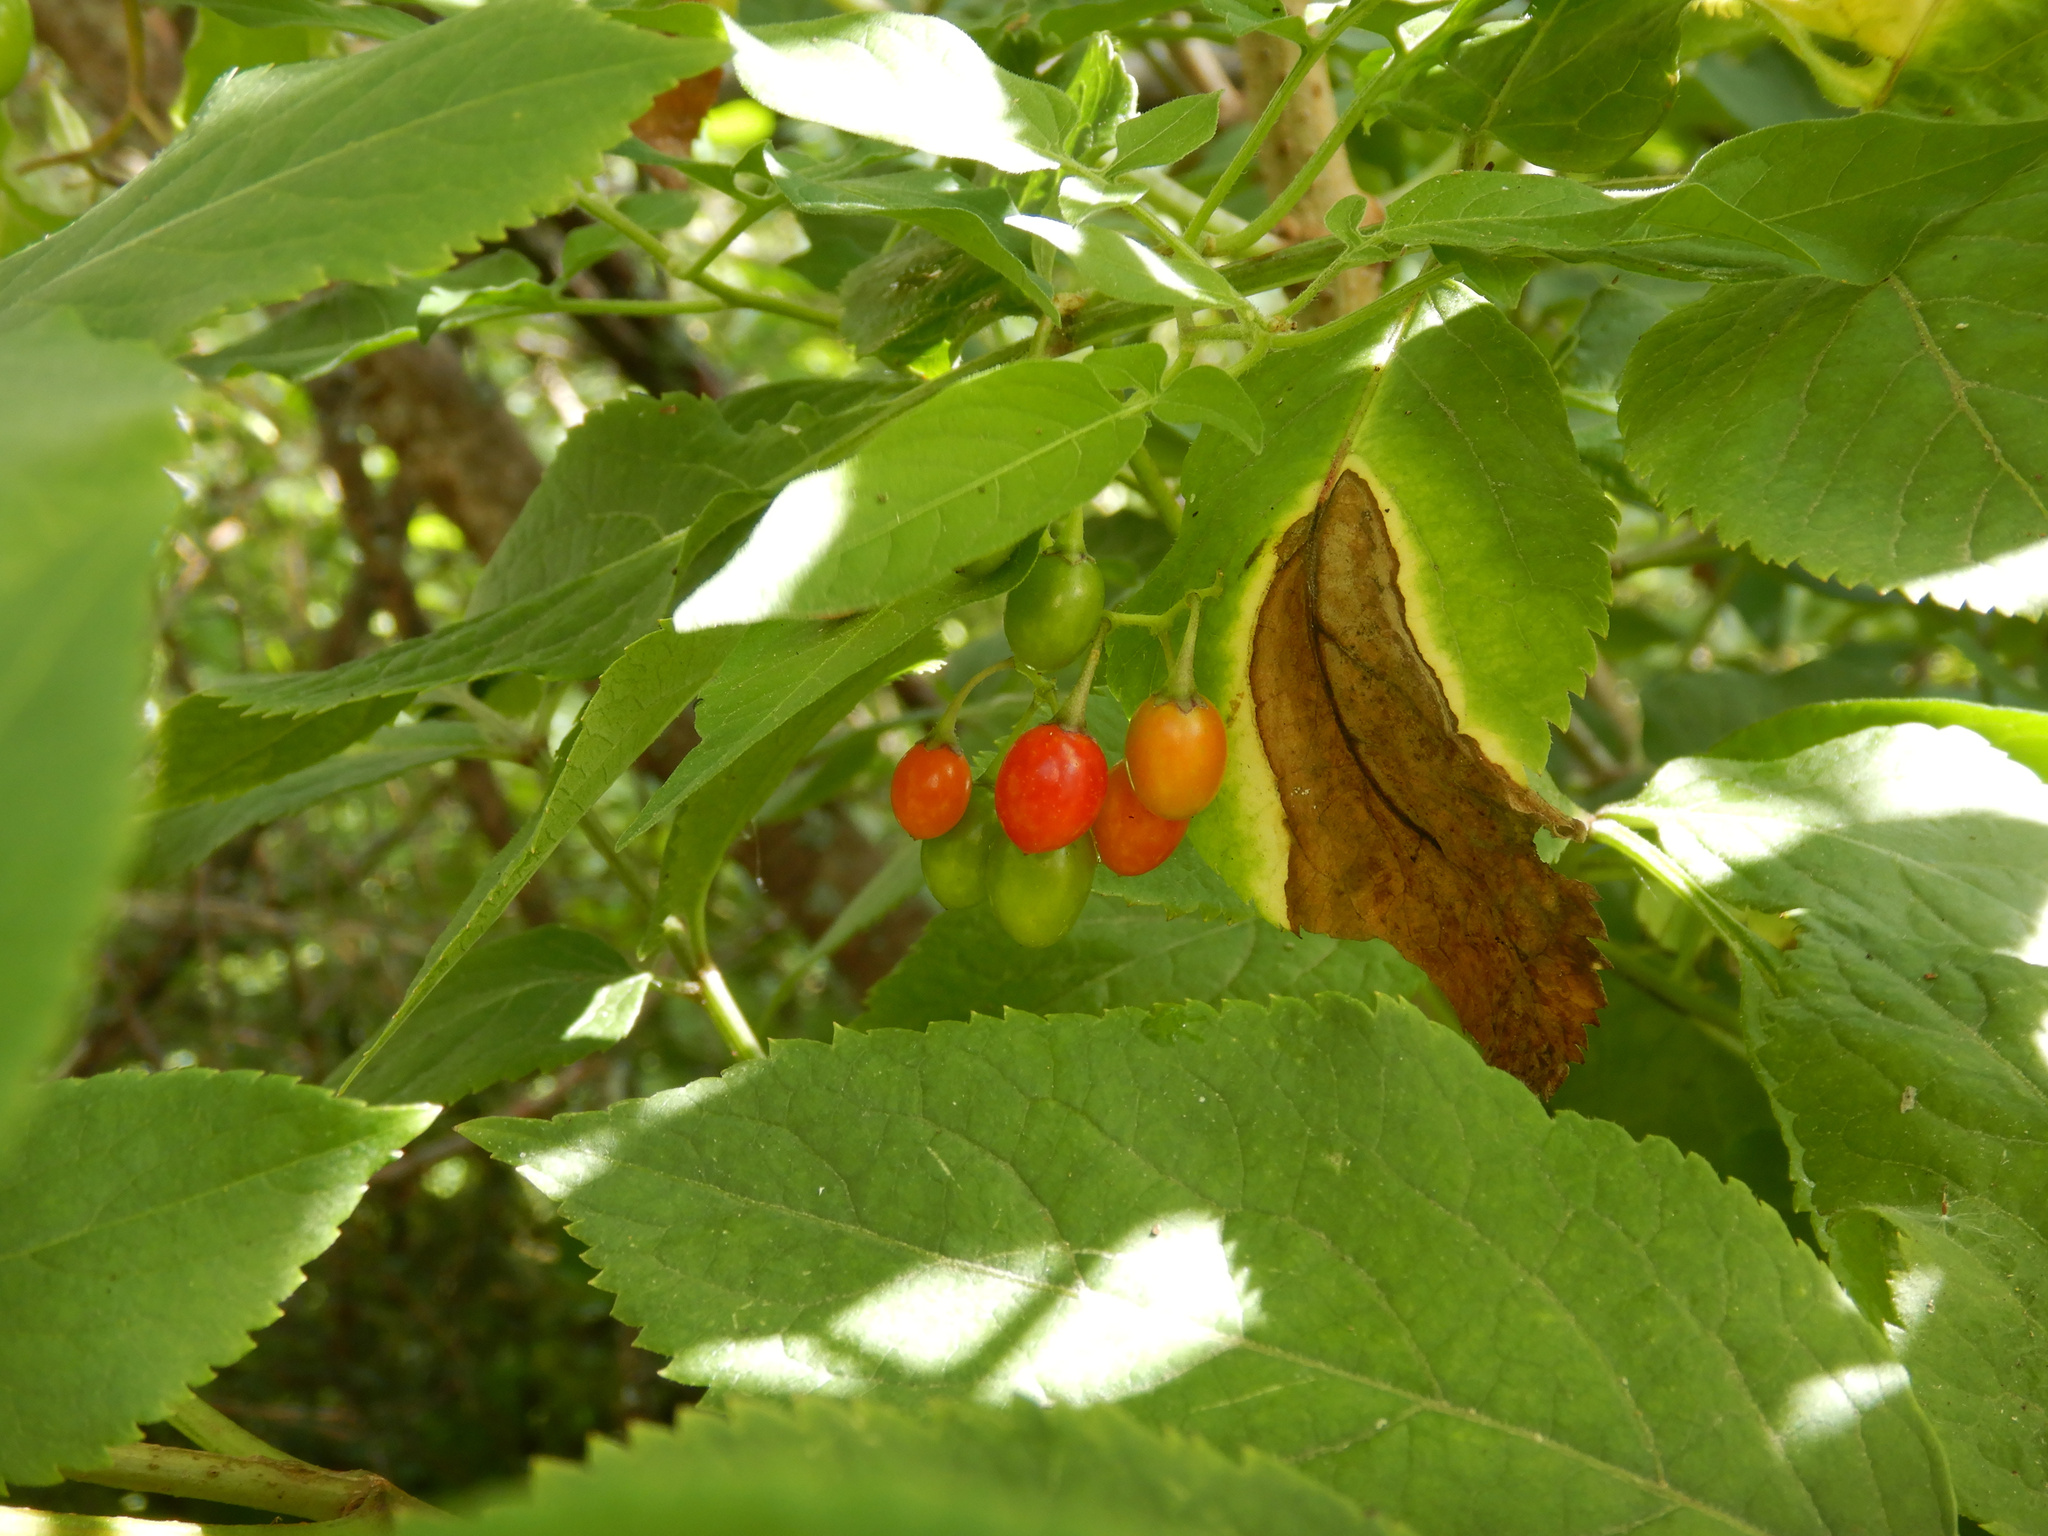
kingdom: Plantae
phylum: Tracheophyta
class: Magnoliopsida
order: Solanales
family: Solanaceae
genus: Solanum
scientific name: Solanum dulcamara
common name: Climbing nightshade
